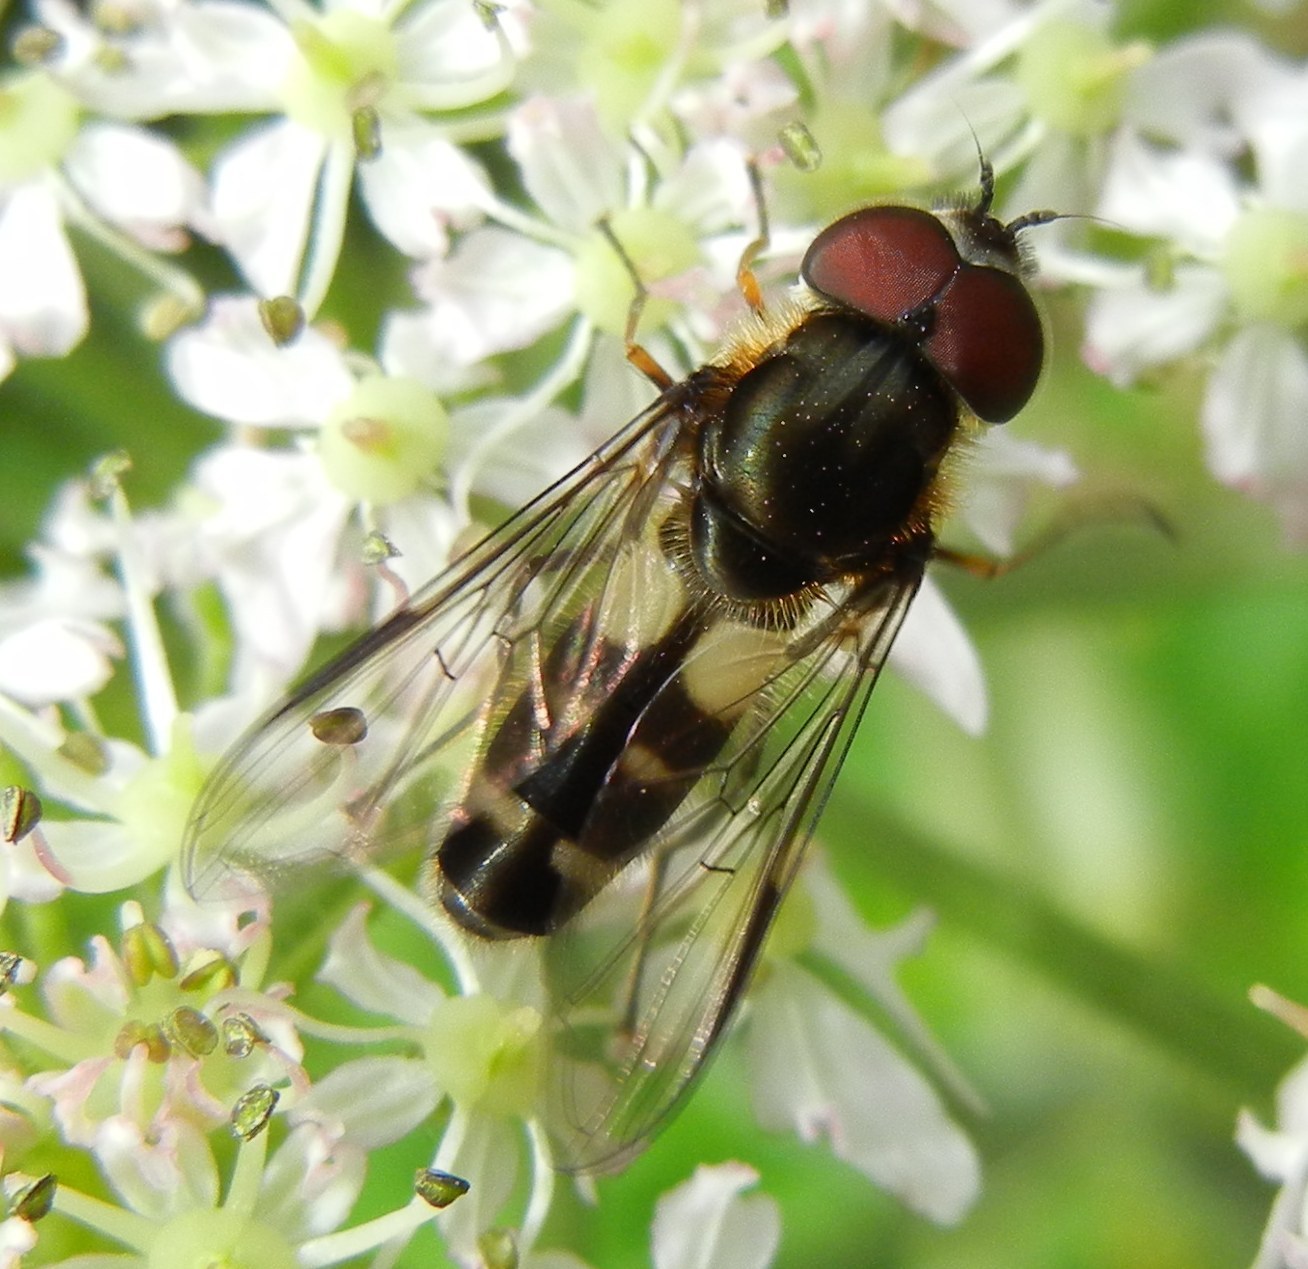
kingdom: Animalia
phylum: Arthropoda
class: Insecta
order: Diptera
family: Syrphidae
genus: Leucozona
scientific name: Leucozona laternaria
